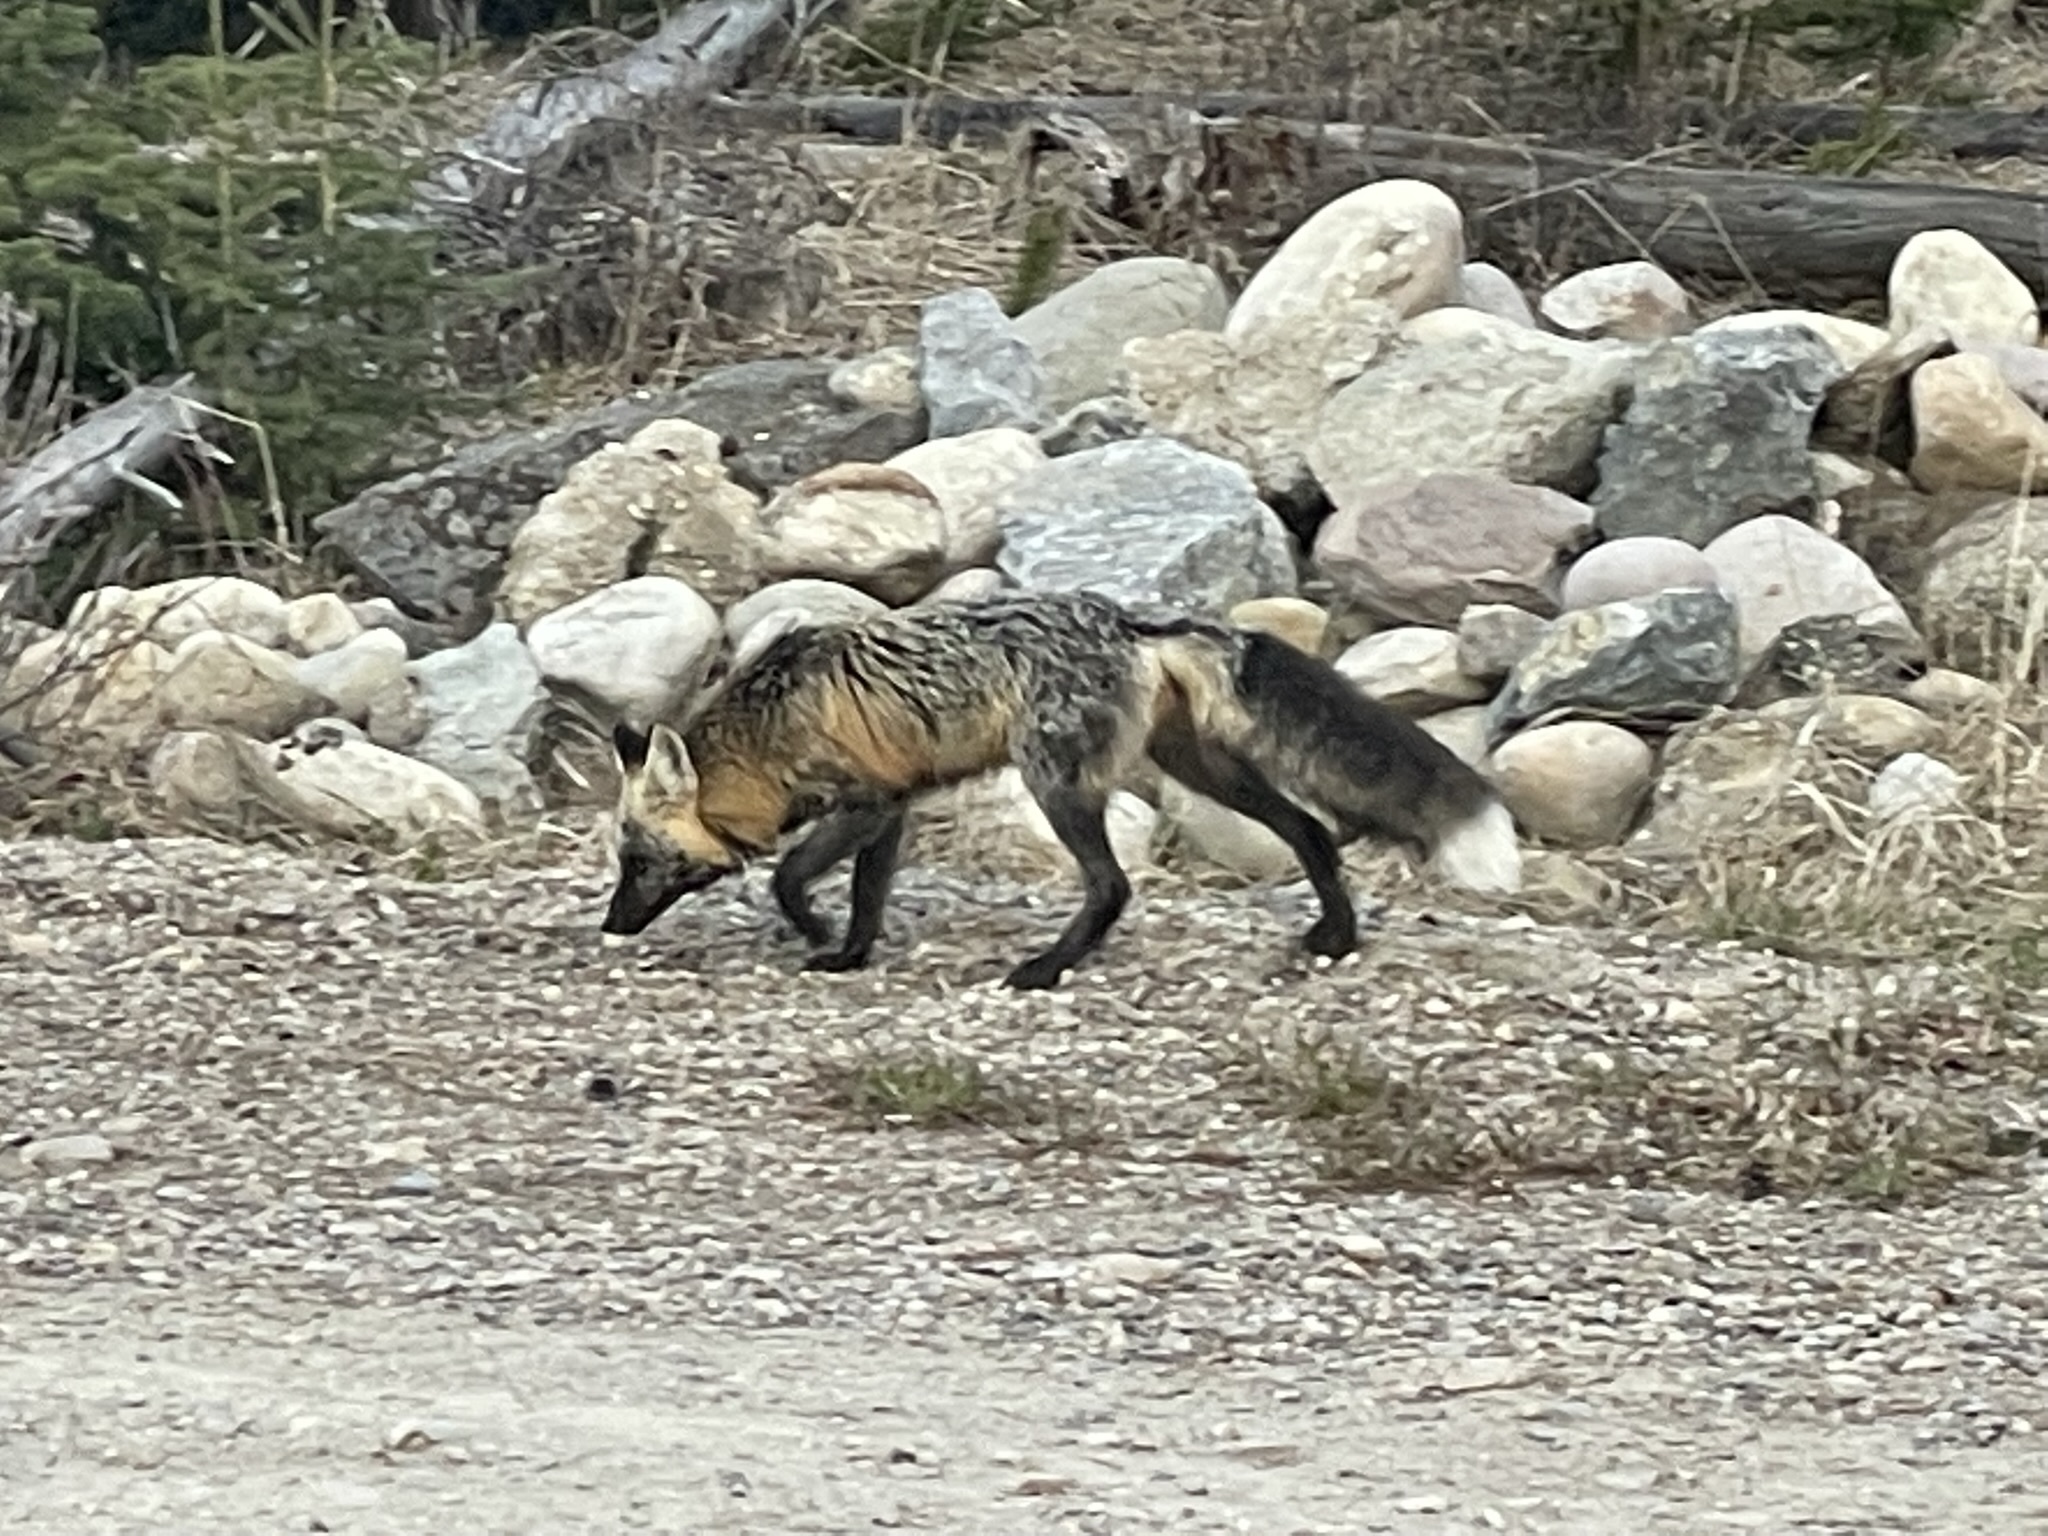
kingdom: Animalia
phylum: Chordata
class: Mammalia
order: Carnivora
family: Canidae
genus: Vulpes
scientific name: Vulpes vulpes
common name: Red fox
